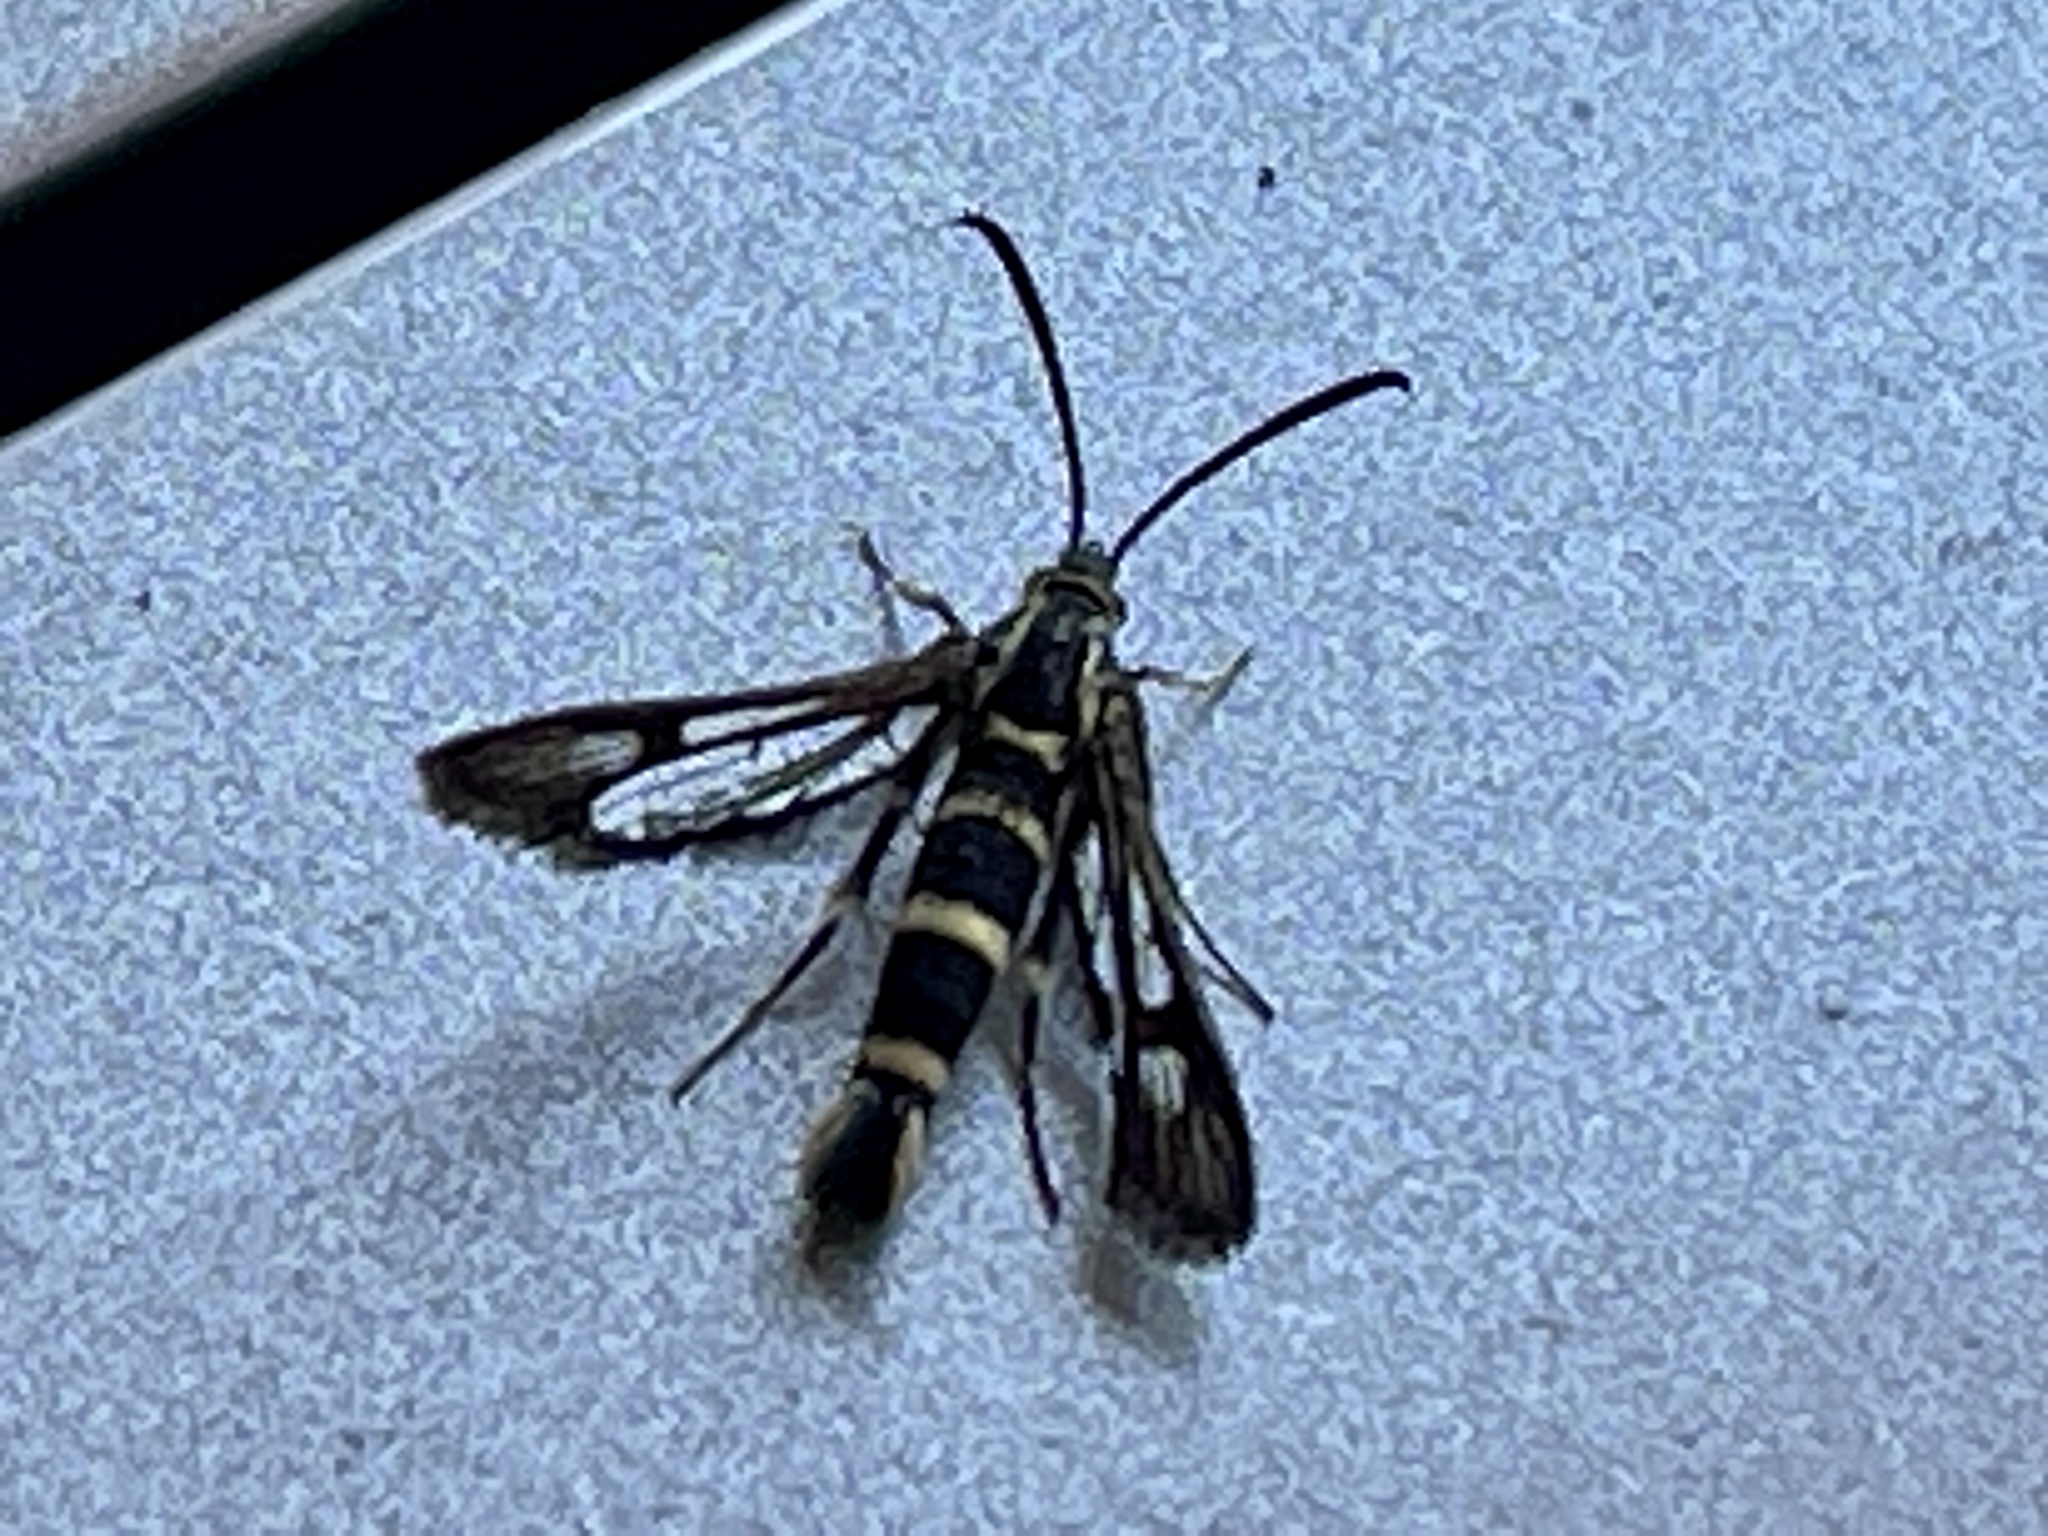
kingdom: Animalia
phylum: Arthropoda
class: Insecta
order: Lepidoptera
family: Sesiidae
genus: Synanthedon
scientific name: Synanthedon bibionipennis
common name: Strawberry crown moth
